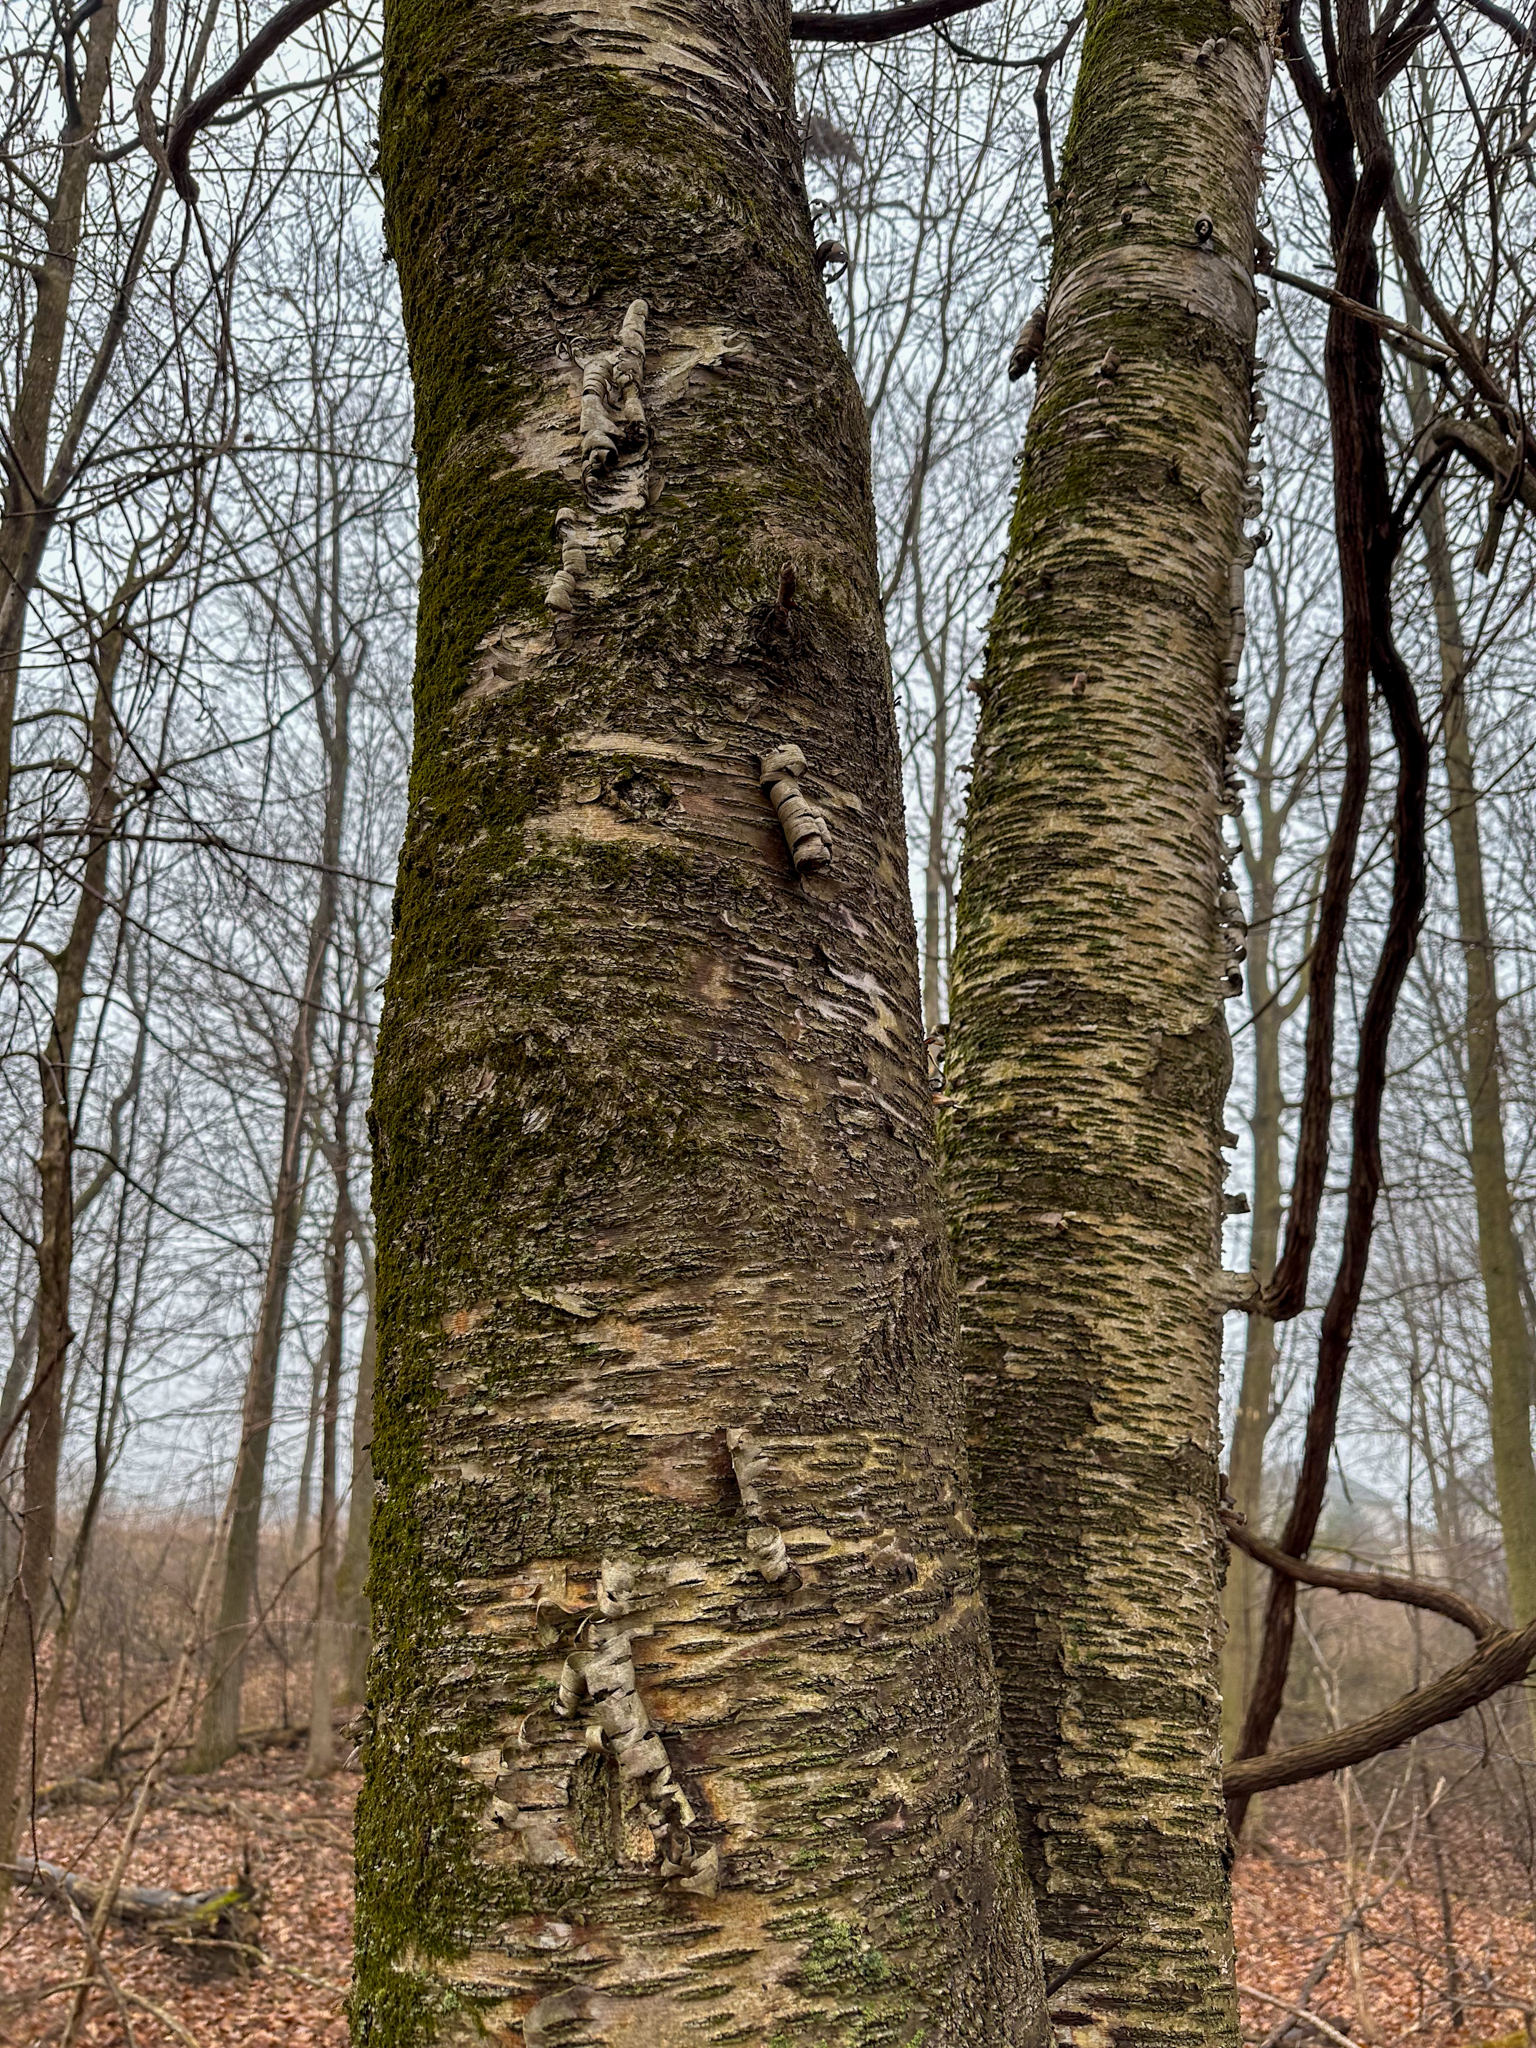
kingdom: Plantae
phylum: Tracheophyta
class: Magnoliopsida
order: Fagales
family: Betulaceae
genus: Betula
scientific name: Betula alleghaniensis
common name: Yellow birch
